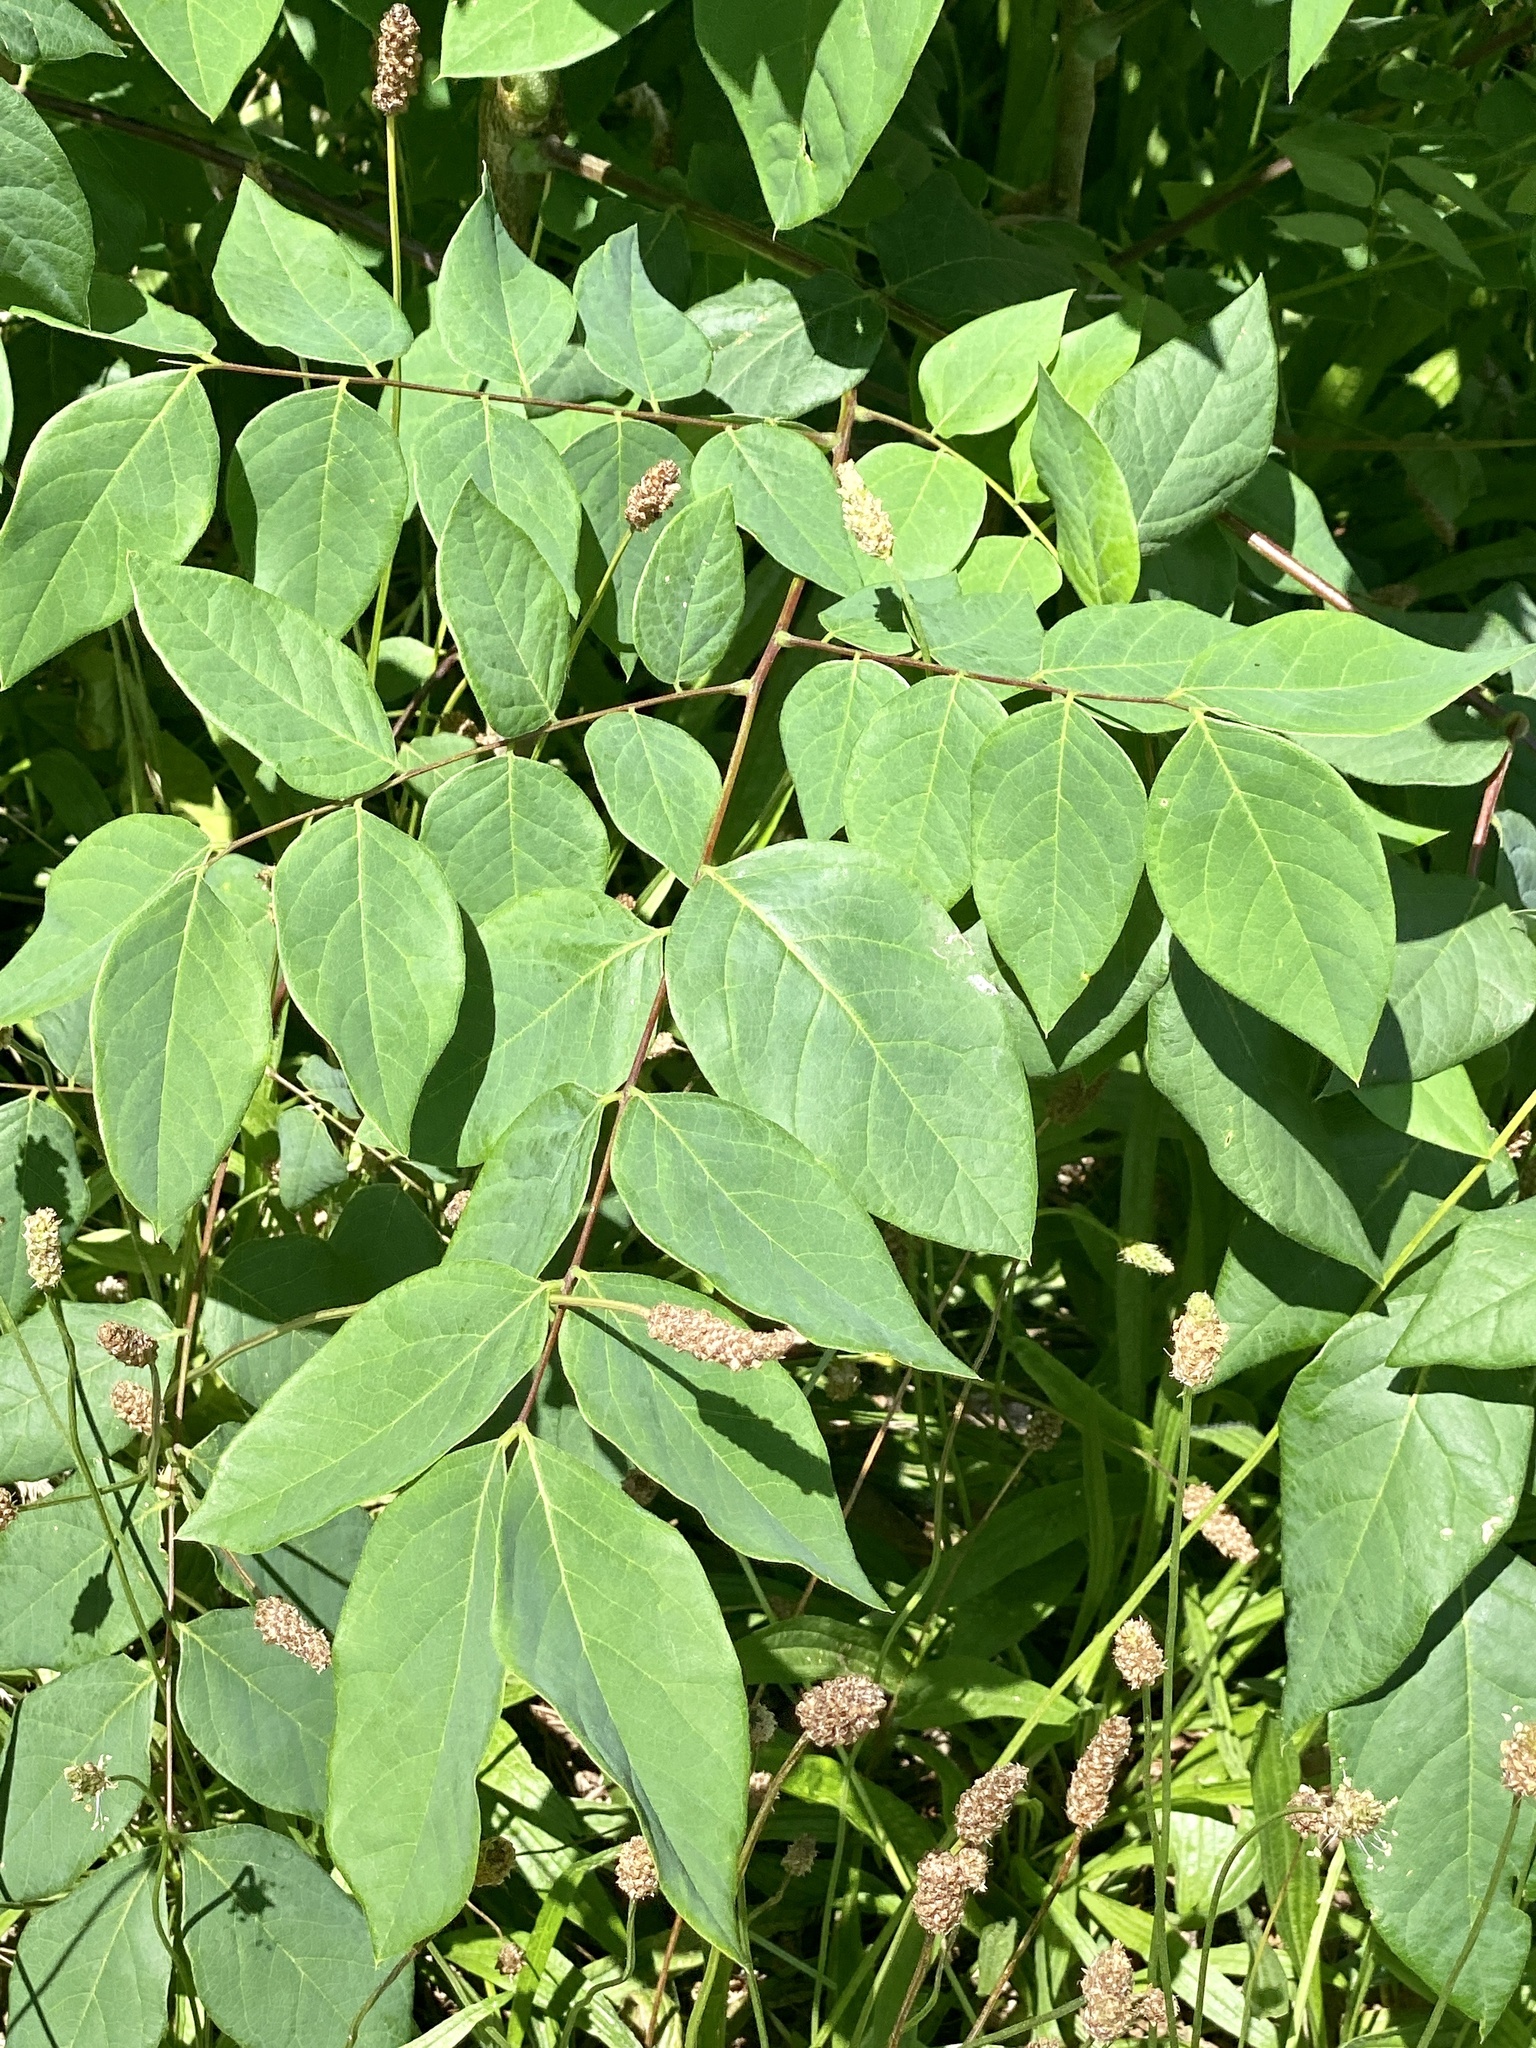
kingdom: Plantae
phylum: Tracheophyta
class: Magnoliopsida
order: Fabales
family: Fabaceae
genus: Gymnocladus
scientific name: Gymnocladus dioicus
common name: Kentucky coffee-tree
